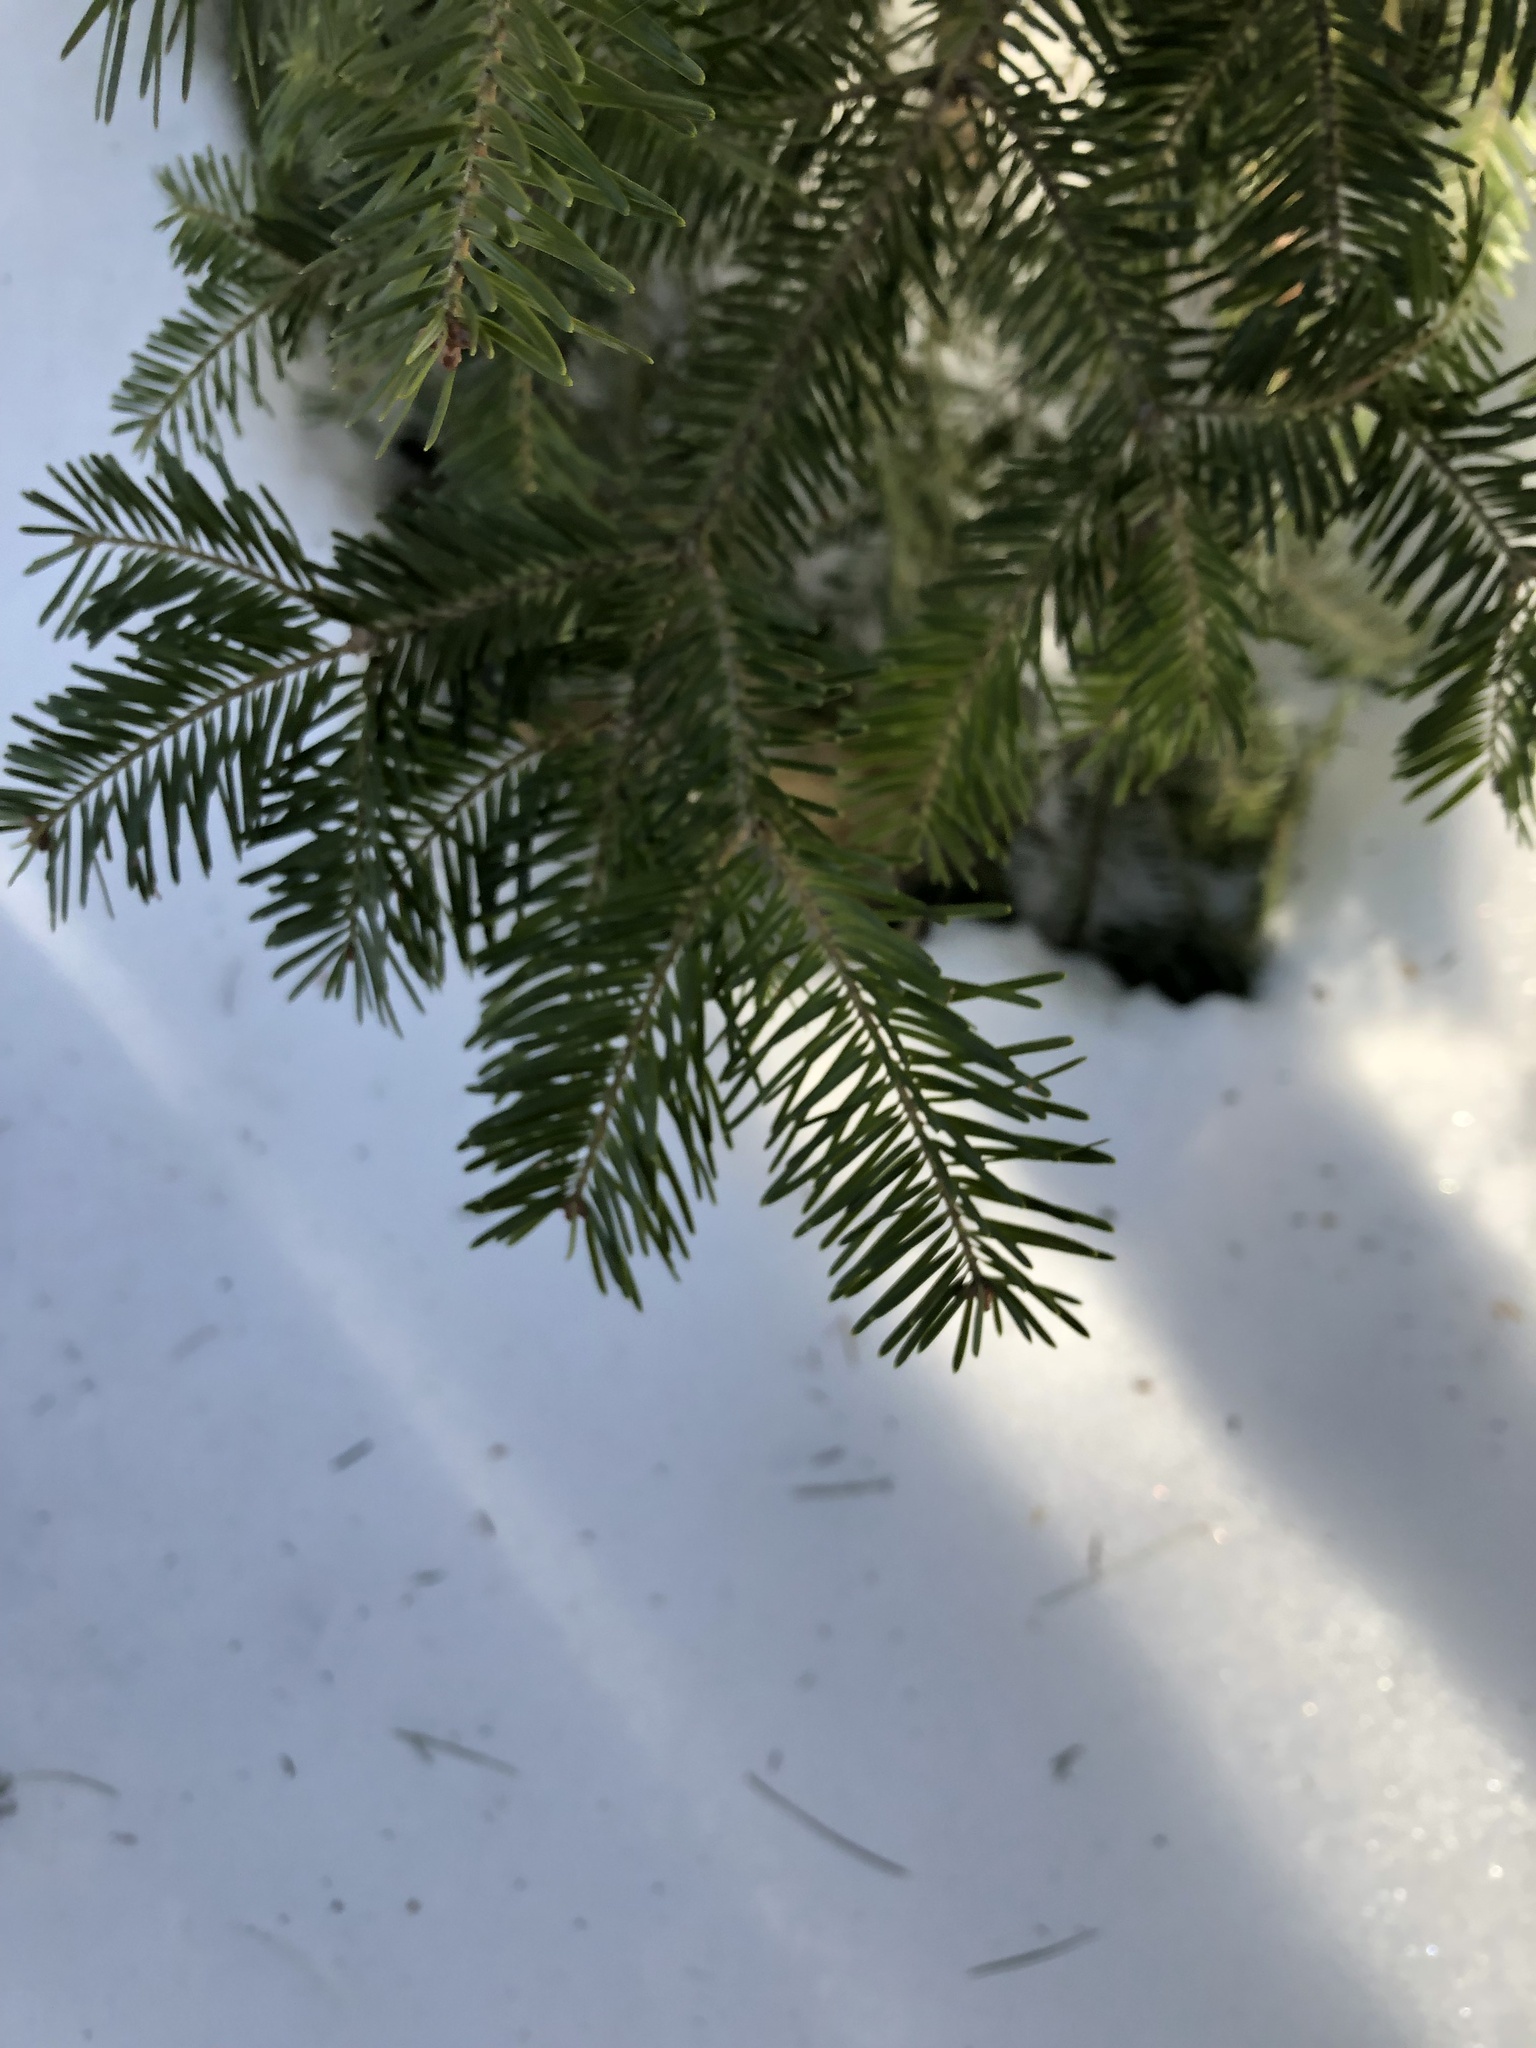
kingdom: Plantae
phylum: Tracheophyta
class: Pinopsida
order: Pinales
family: Pinaceae
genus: Abies
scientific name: Abies balsamea
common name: Balsam fir
